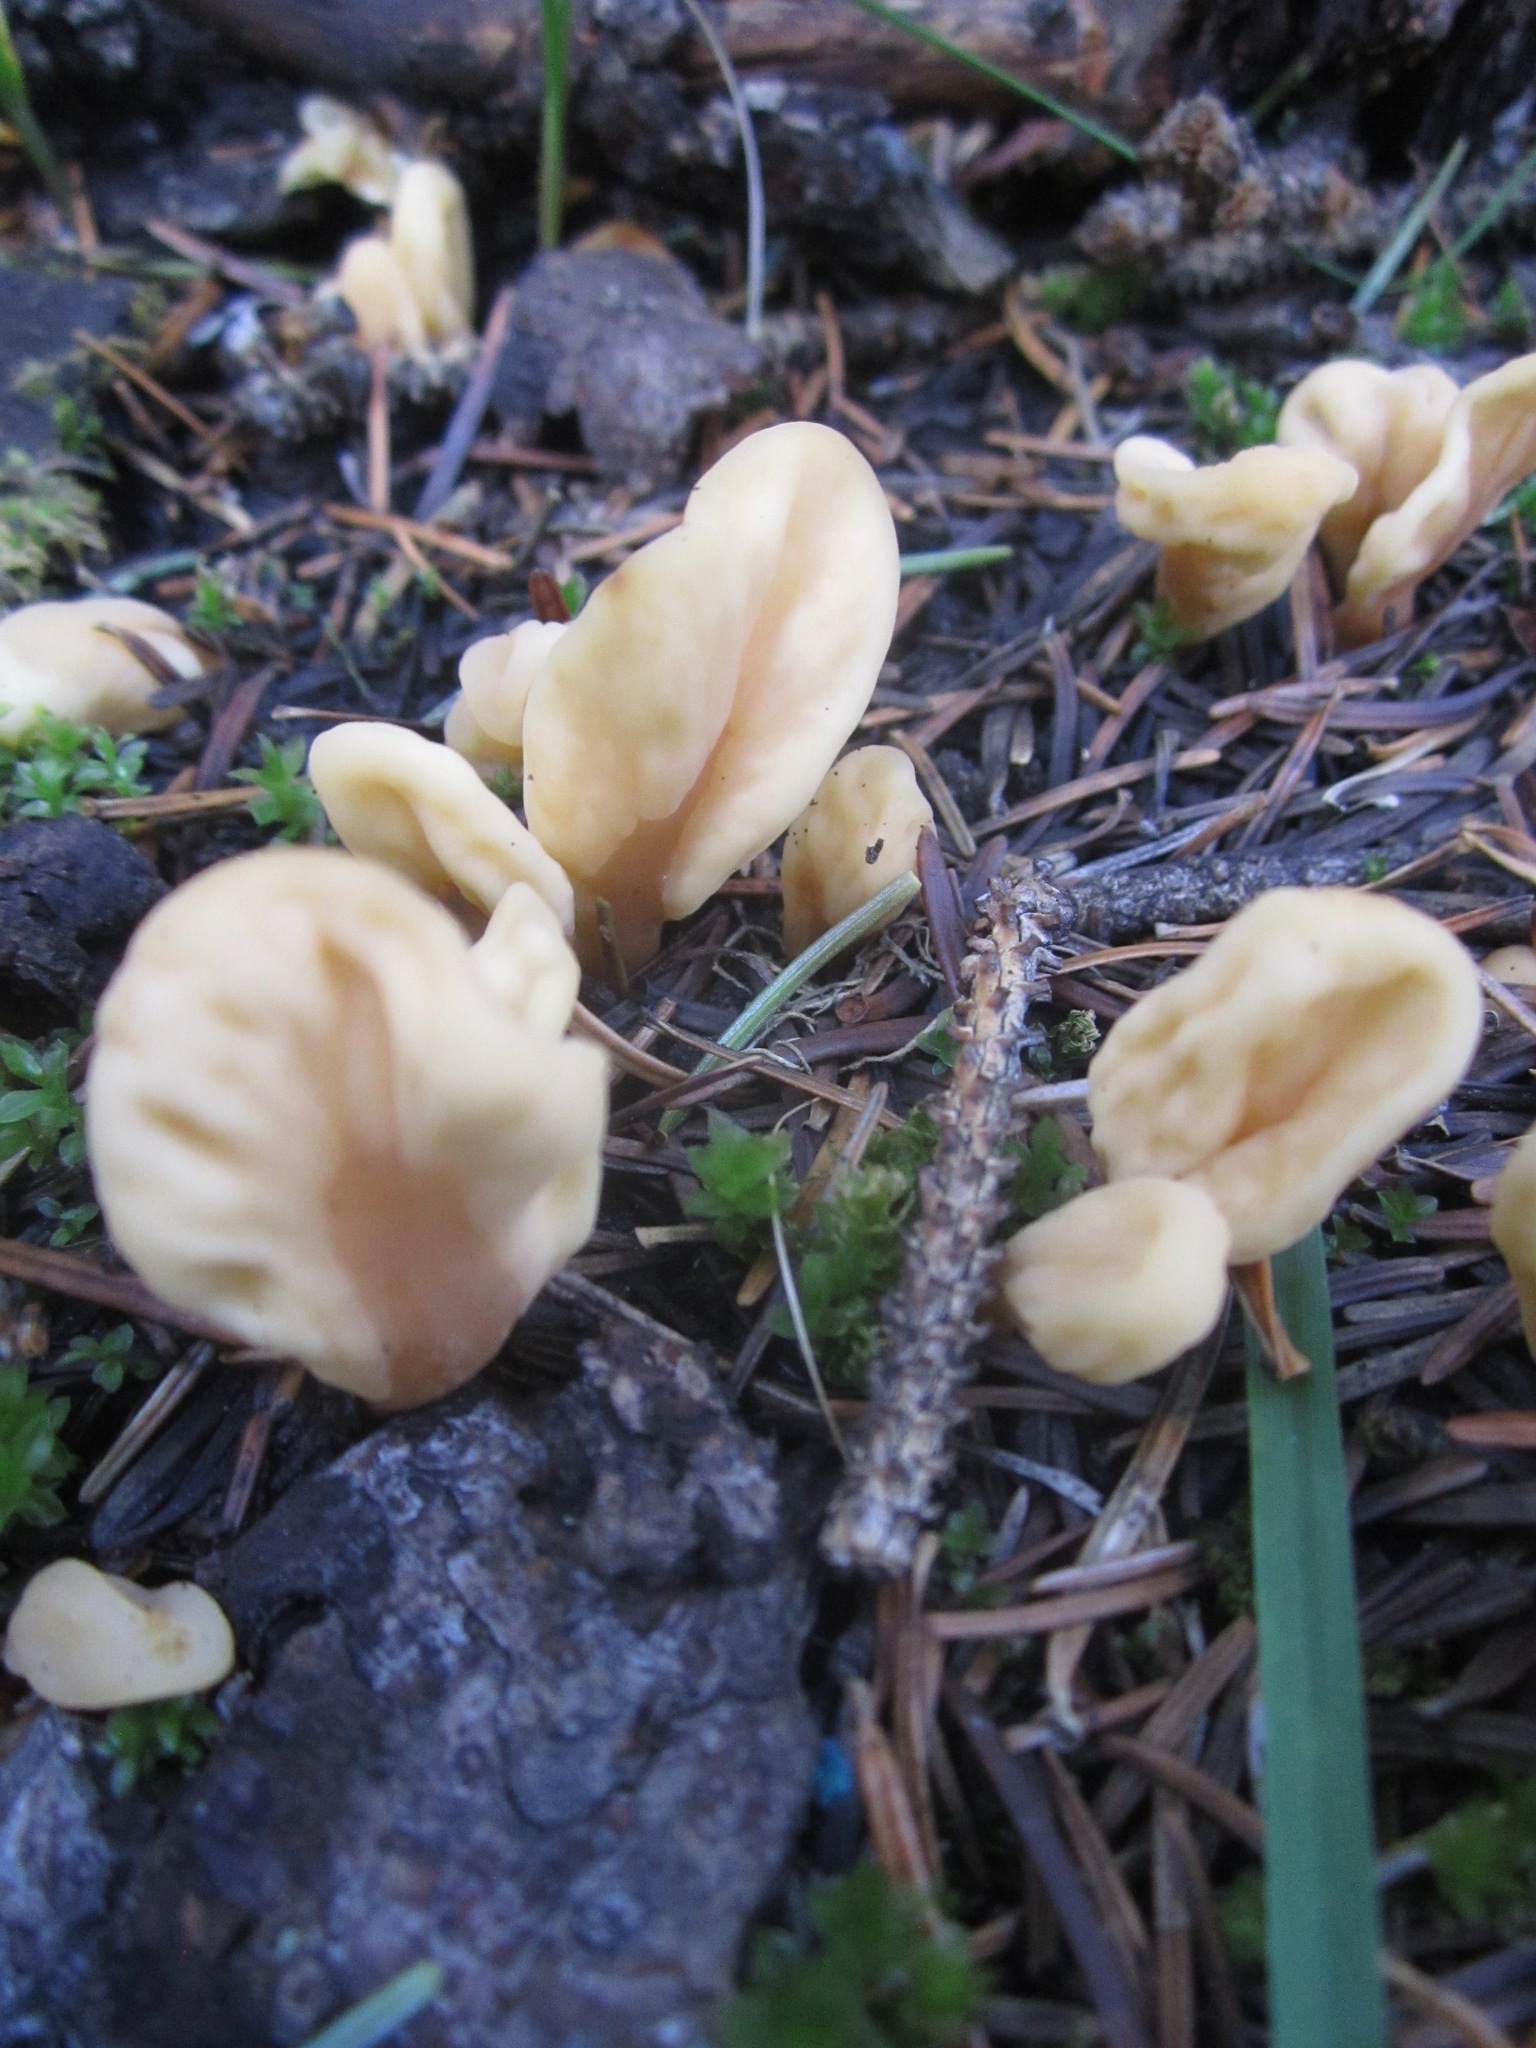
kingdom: Fungi
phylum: Ascomycota
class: Leotiomycetes
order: Rhytismatales
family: Cudoniaceae
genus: Spathularia
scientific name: Spathularia rufa
